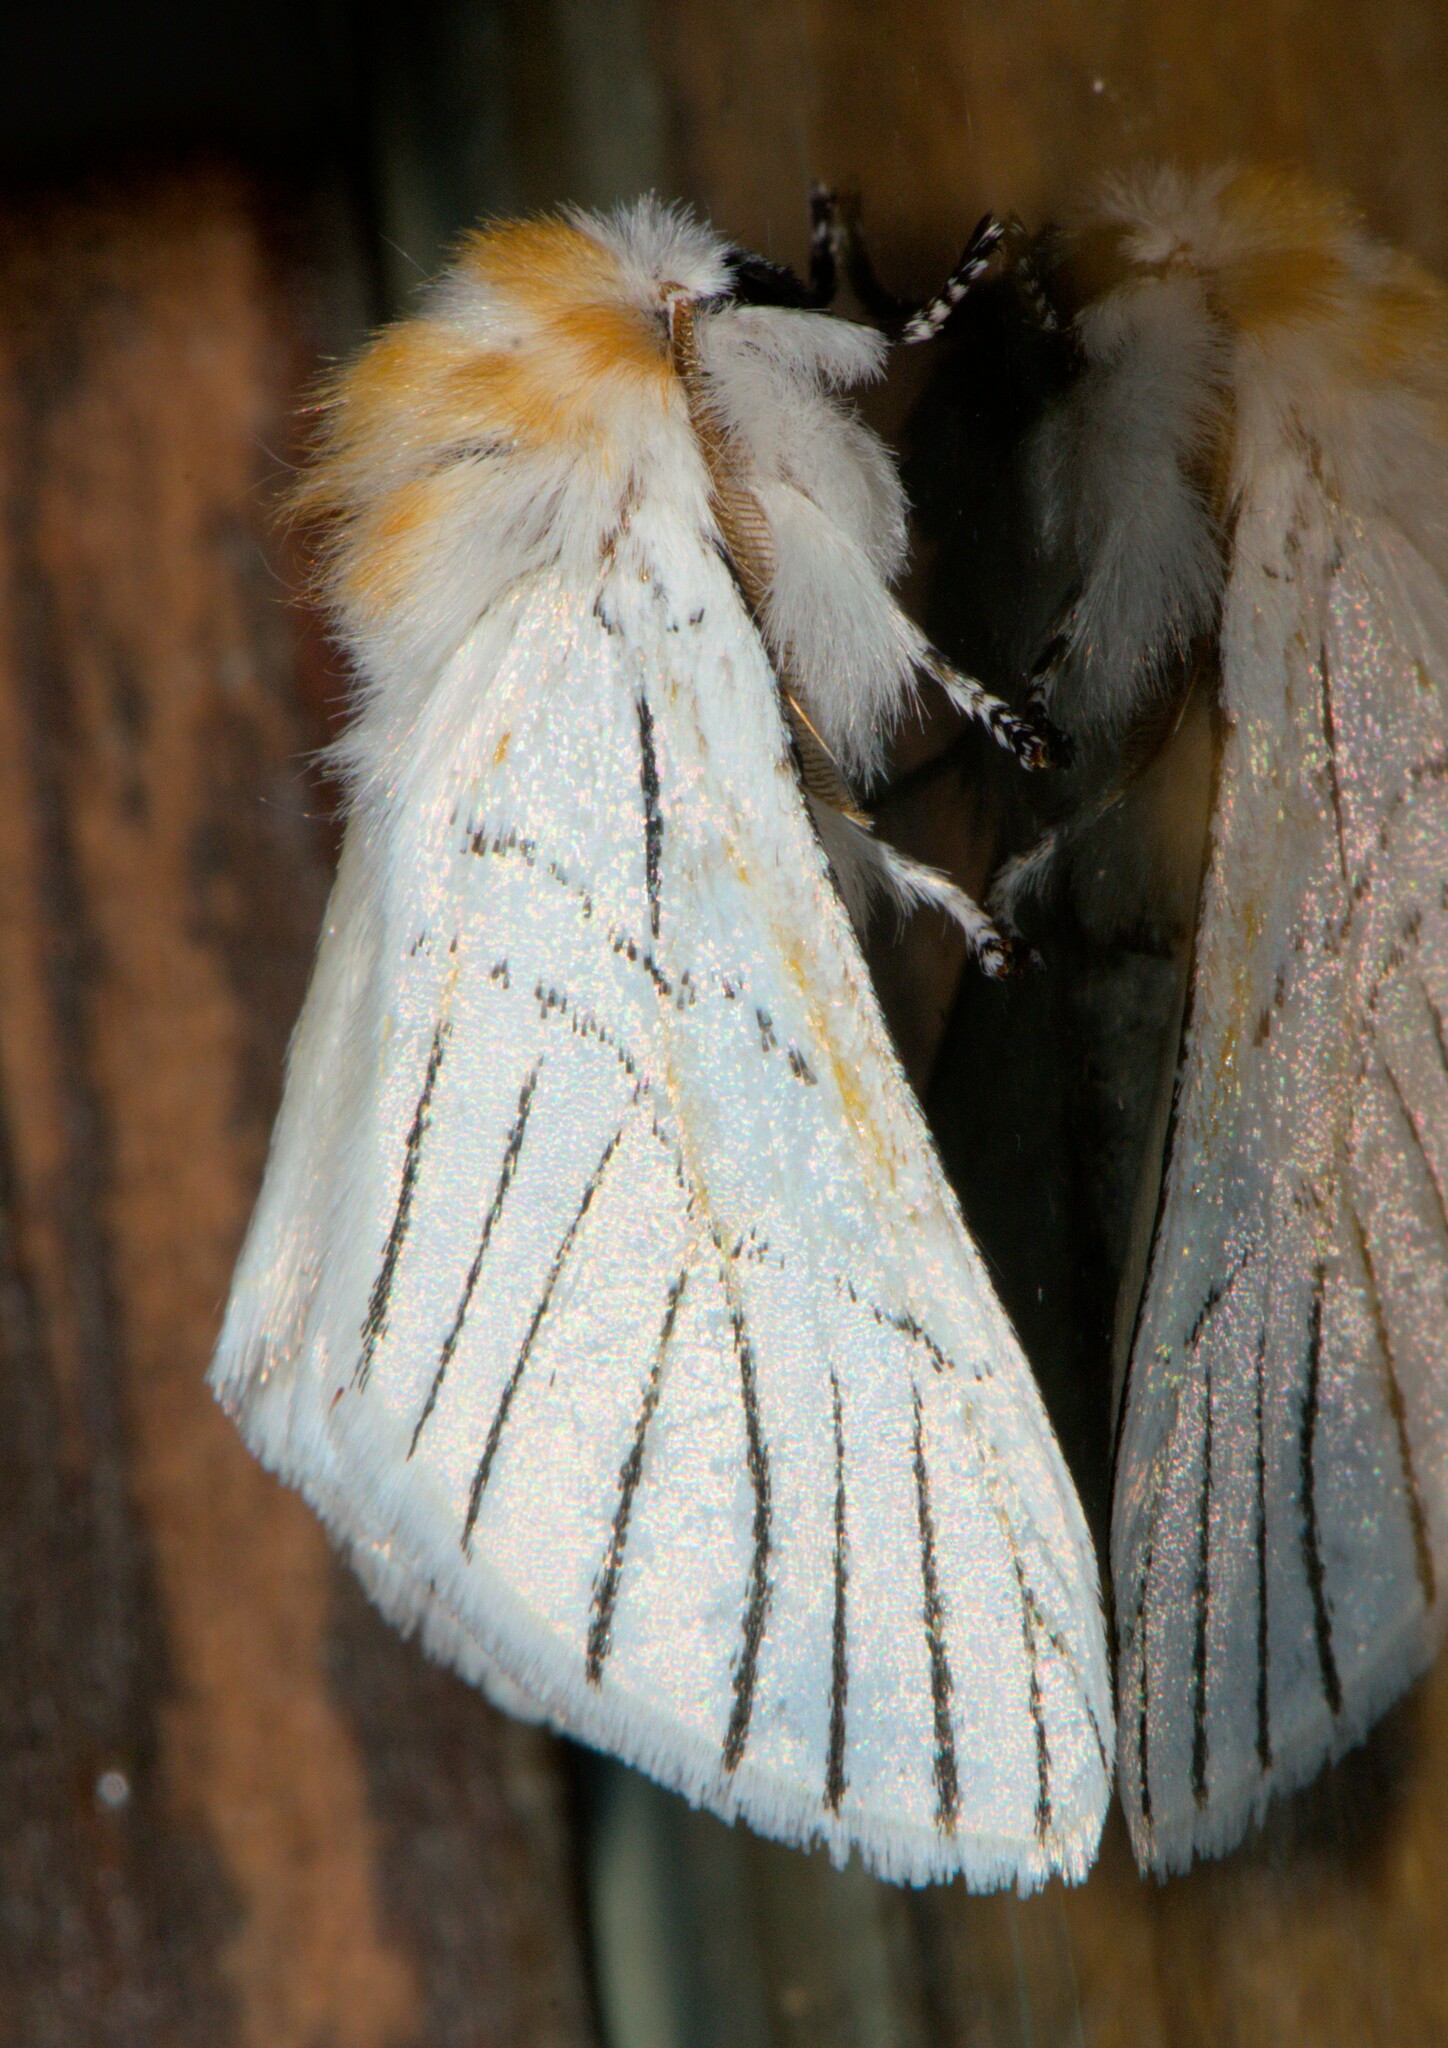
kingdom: Animalia
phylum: Arthropoda
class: Insecta
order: Lepidoptera
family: Notodontidae
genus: Oligoclona
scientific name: Oligoclona chrysolopha
